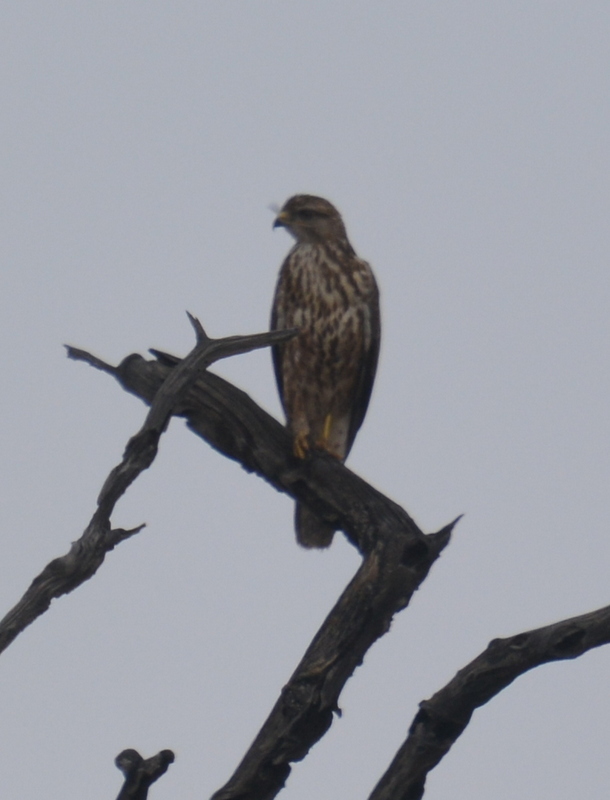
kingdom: Animalia
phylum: Chordata
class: Aves
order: Accipitriformes
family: Accipitridae
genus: Buteo
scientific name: Buteo buteo
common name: Common buzzard
